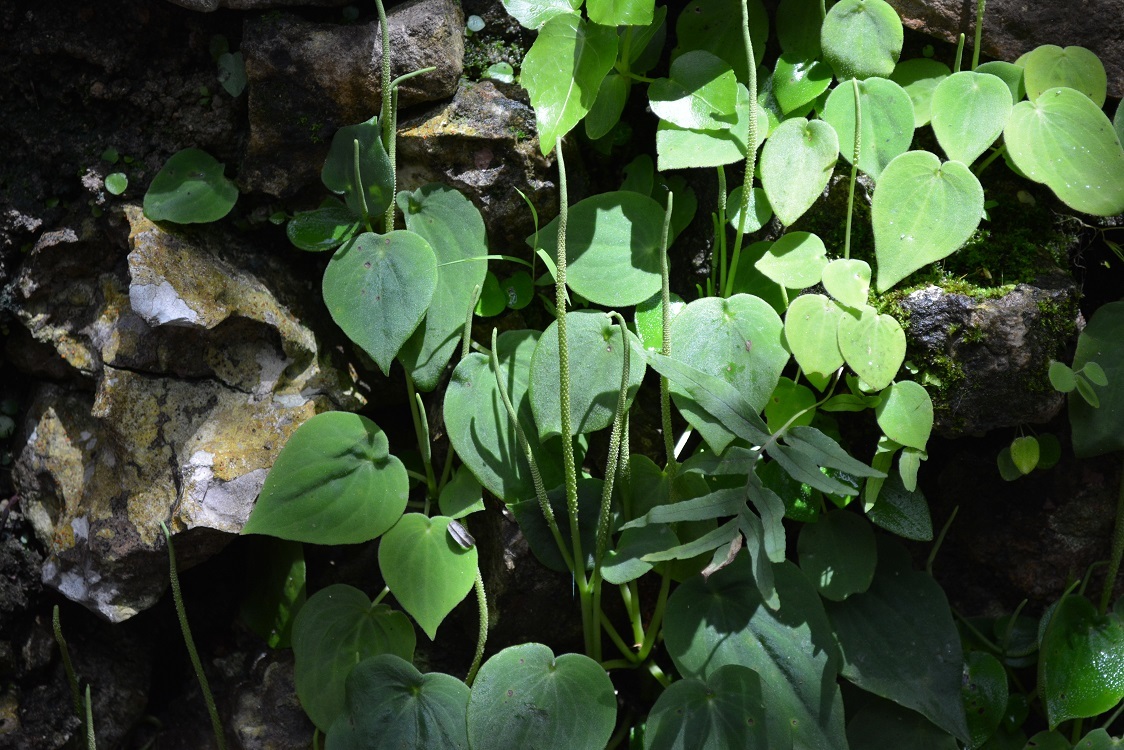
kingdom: Plantae
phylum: Tracheophyta
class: Magnoliopsida
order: Piperales
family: Piperaceae
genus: Peperomia
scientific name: Peperomia lanceolatopeltata
